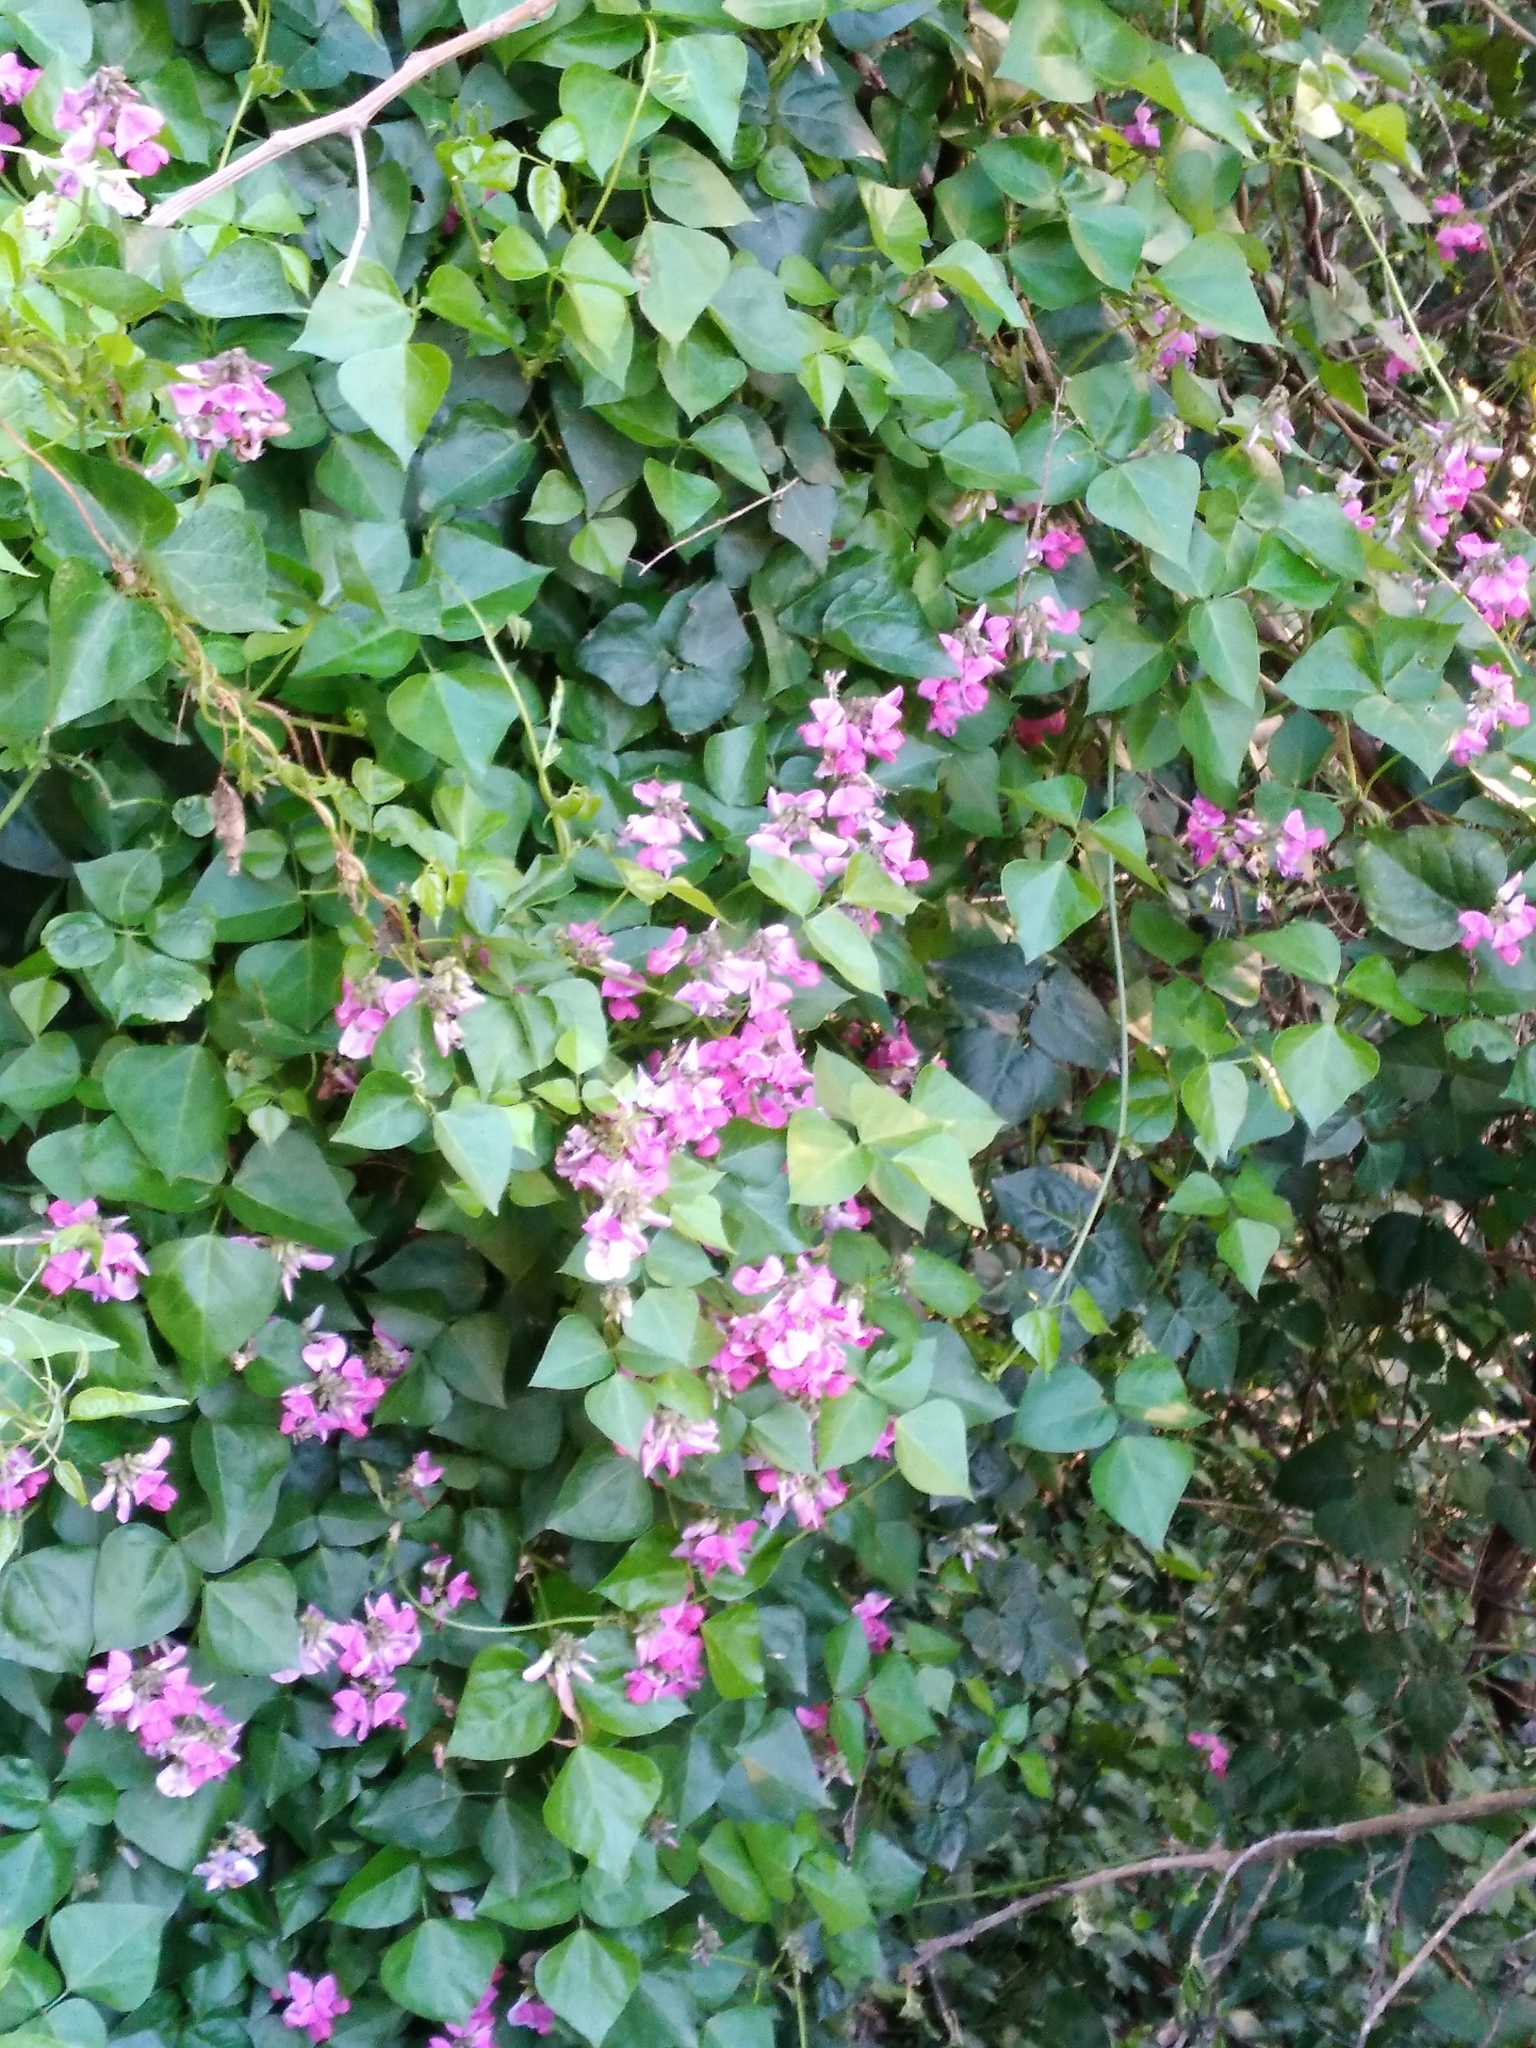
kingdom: Plantae
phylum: Tracheophyta
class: Magnoliopsida
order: Fabales
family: Fabaceae
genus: Dipogon
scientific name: Dipogon lignosus
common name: Okie bean
